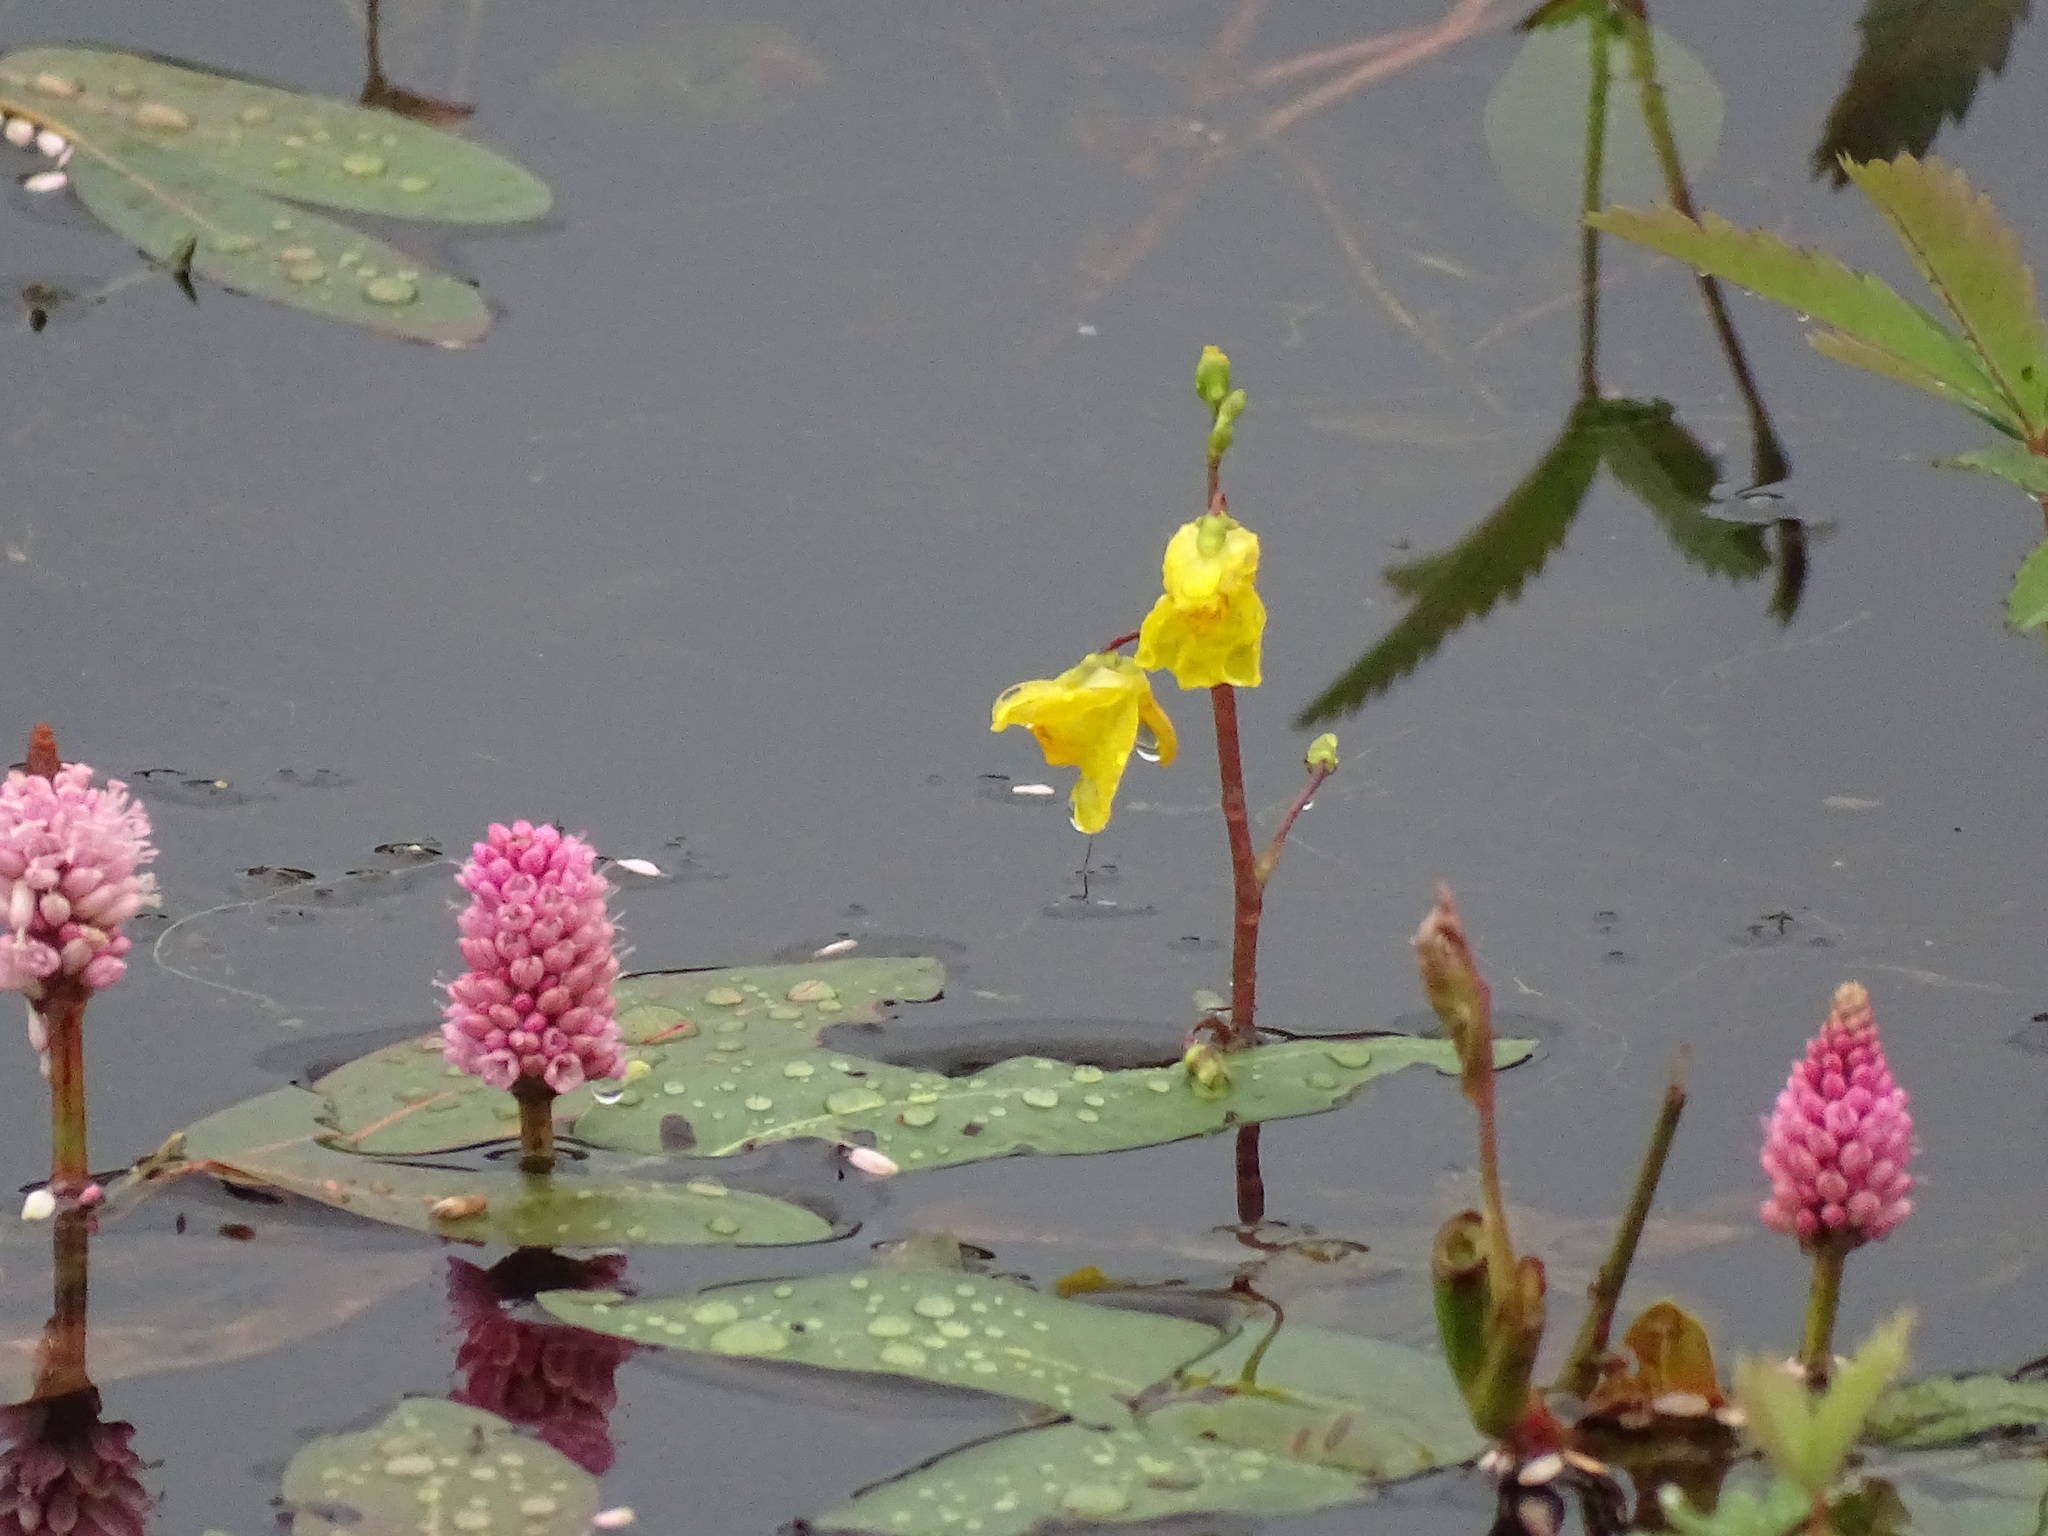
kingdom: Plantae
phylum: Tracheophyta
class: Magnoliopsida
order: Lamiales
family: Lentibulariaceae
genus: Utricularia
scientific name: Utricularia macrorhiza
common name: Common bladderwort
